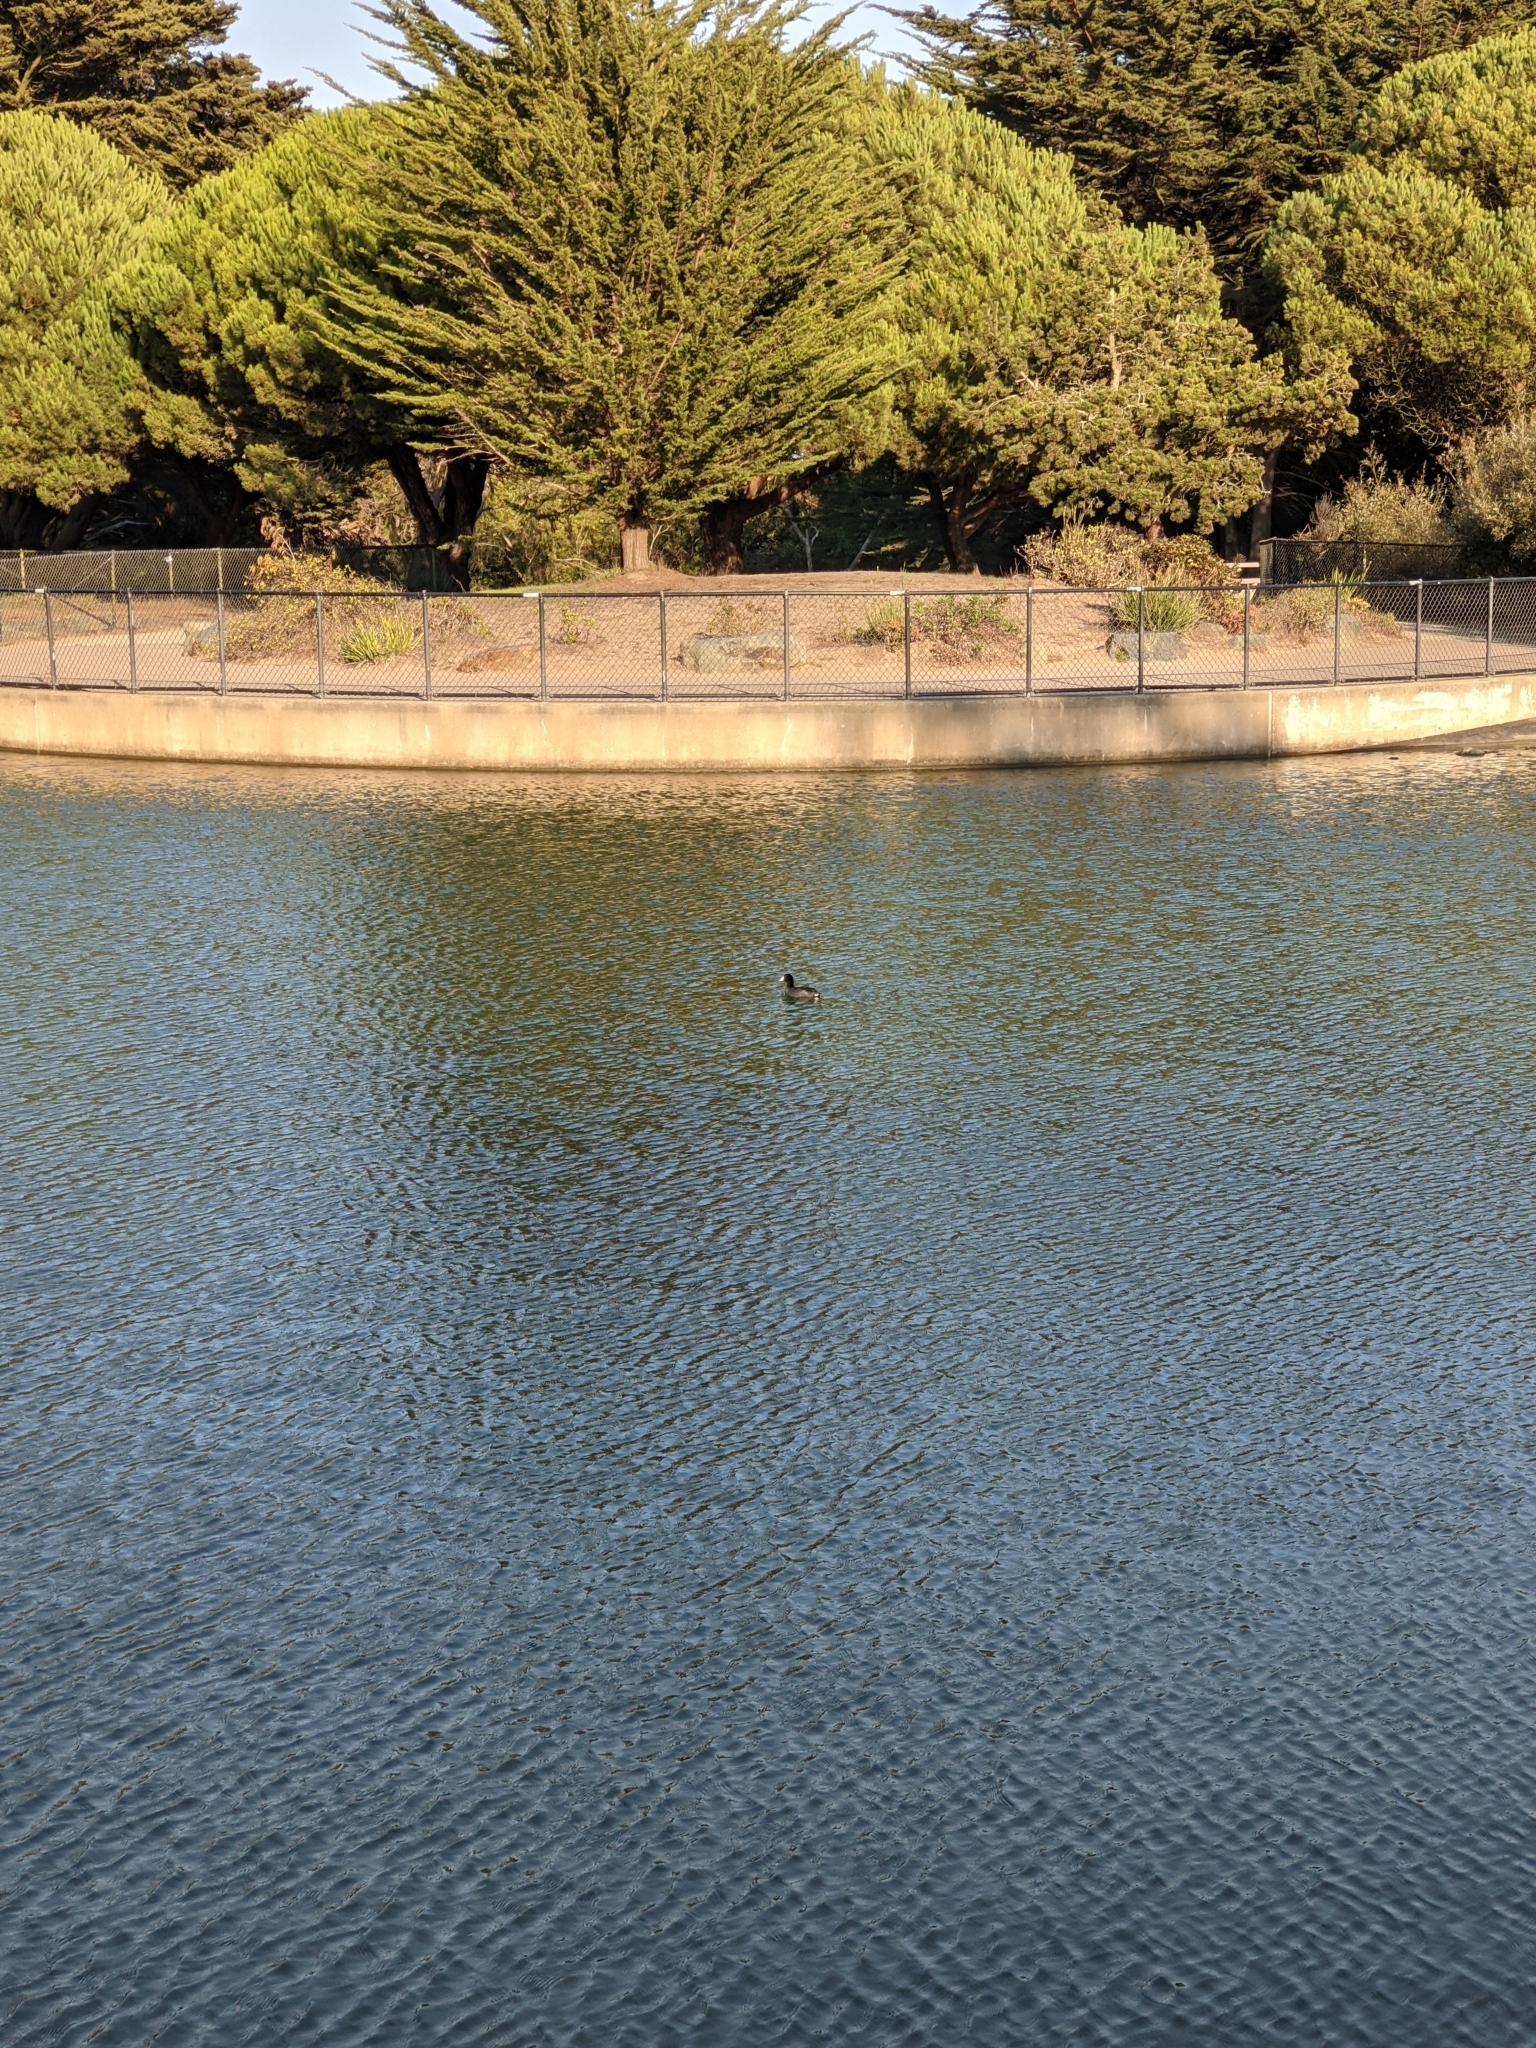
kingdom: Animalia
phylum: Chordata
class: Aves
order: Gruiformes
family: Rallidae
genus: Fulica
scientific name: Fulica americana
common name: American coot
